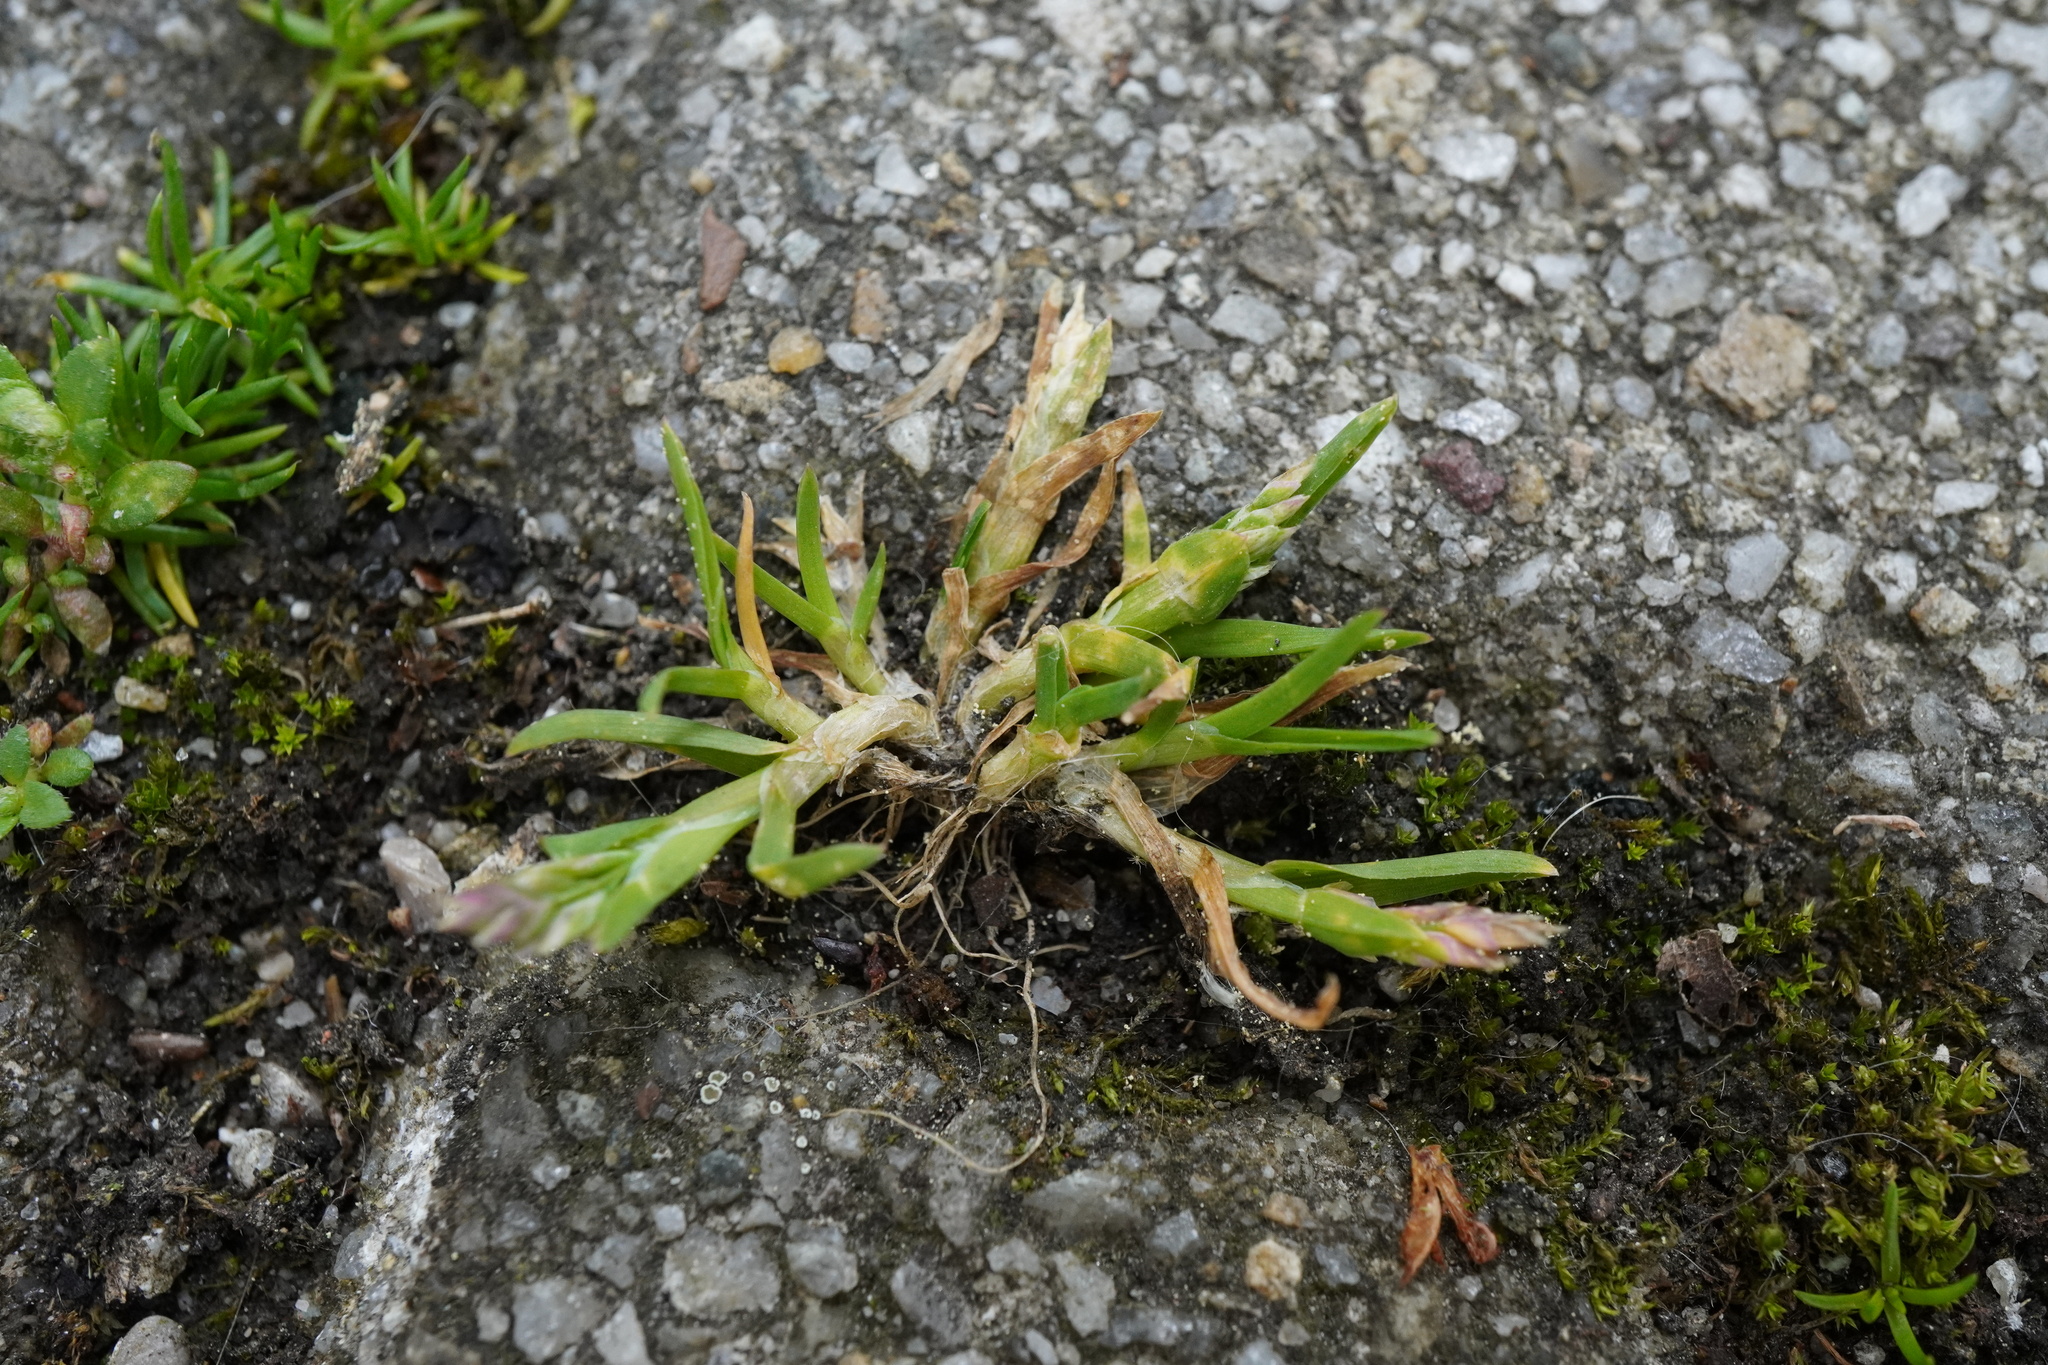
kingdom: Plantae
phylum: Tracheophyta
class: Liliopsida
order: Poales
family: Poaceae
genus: Poa
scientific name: Poa annua
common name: Annual bluegrass
